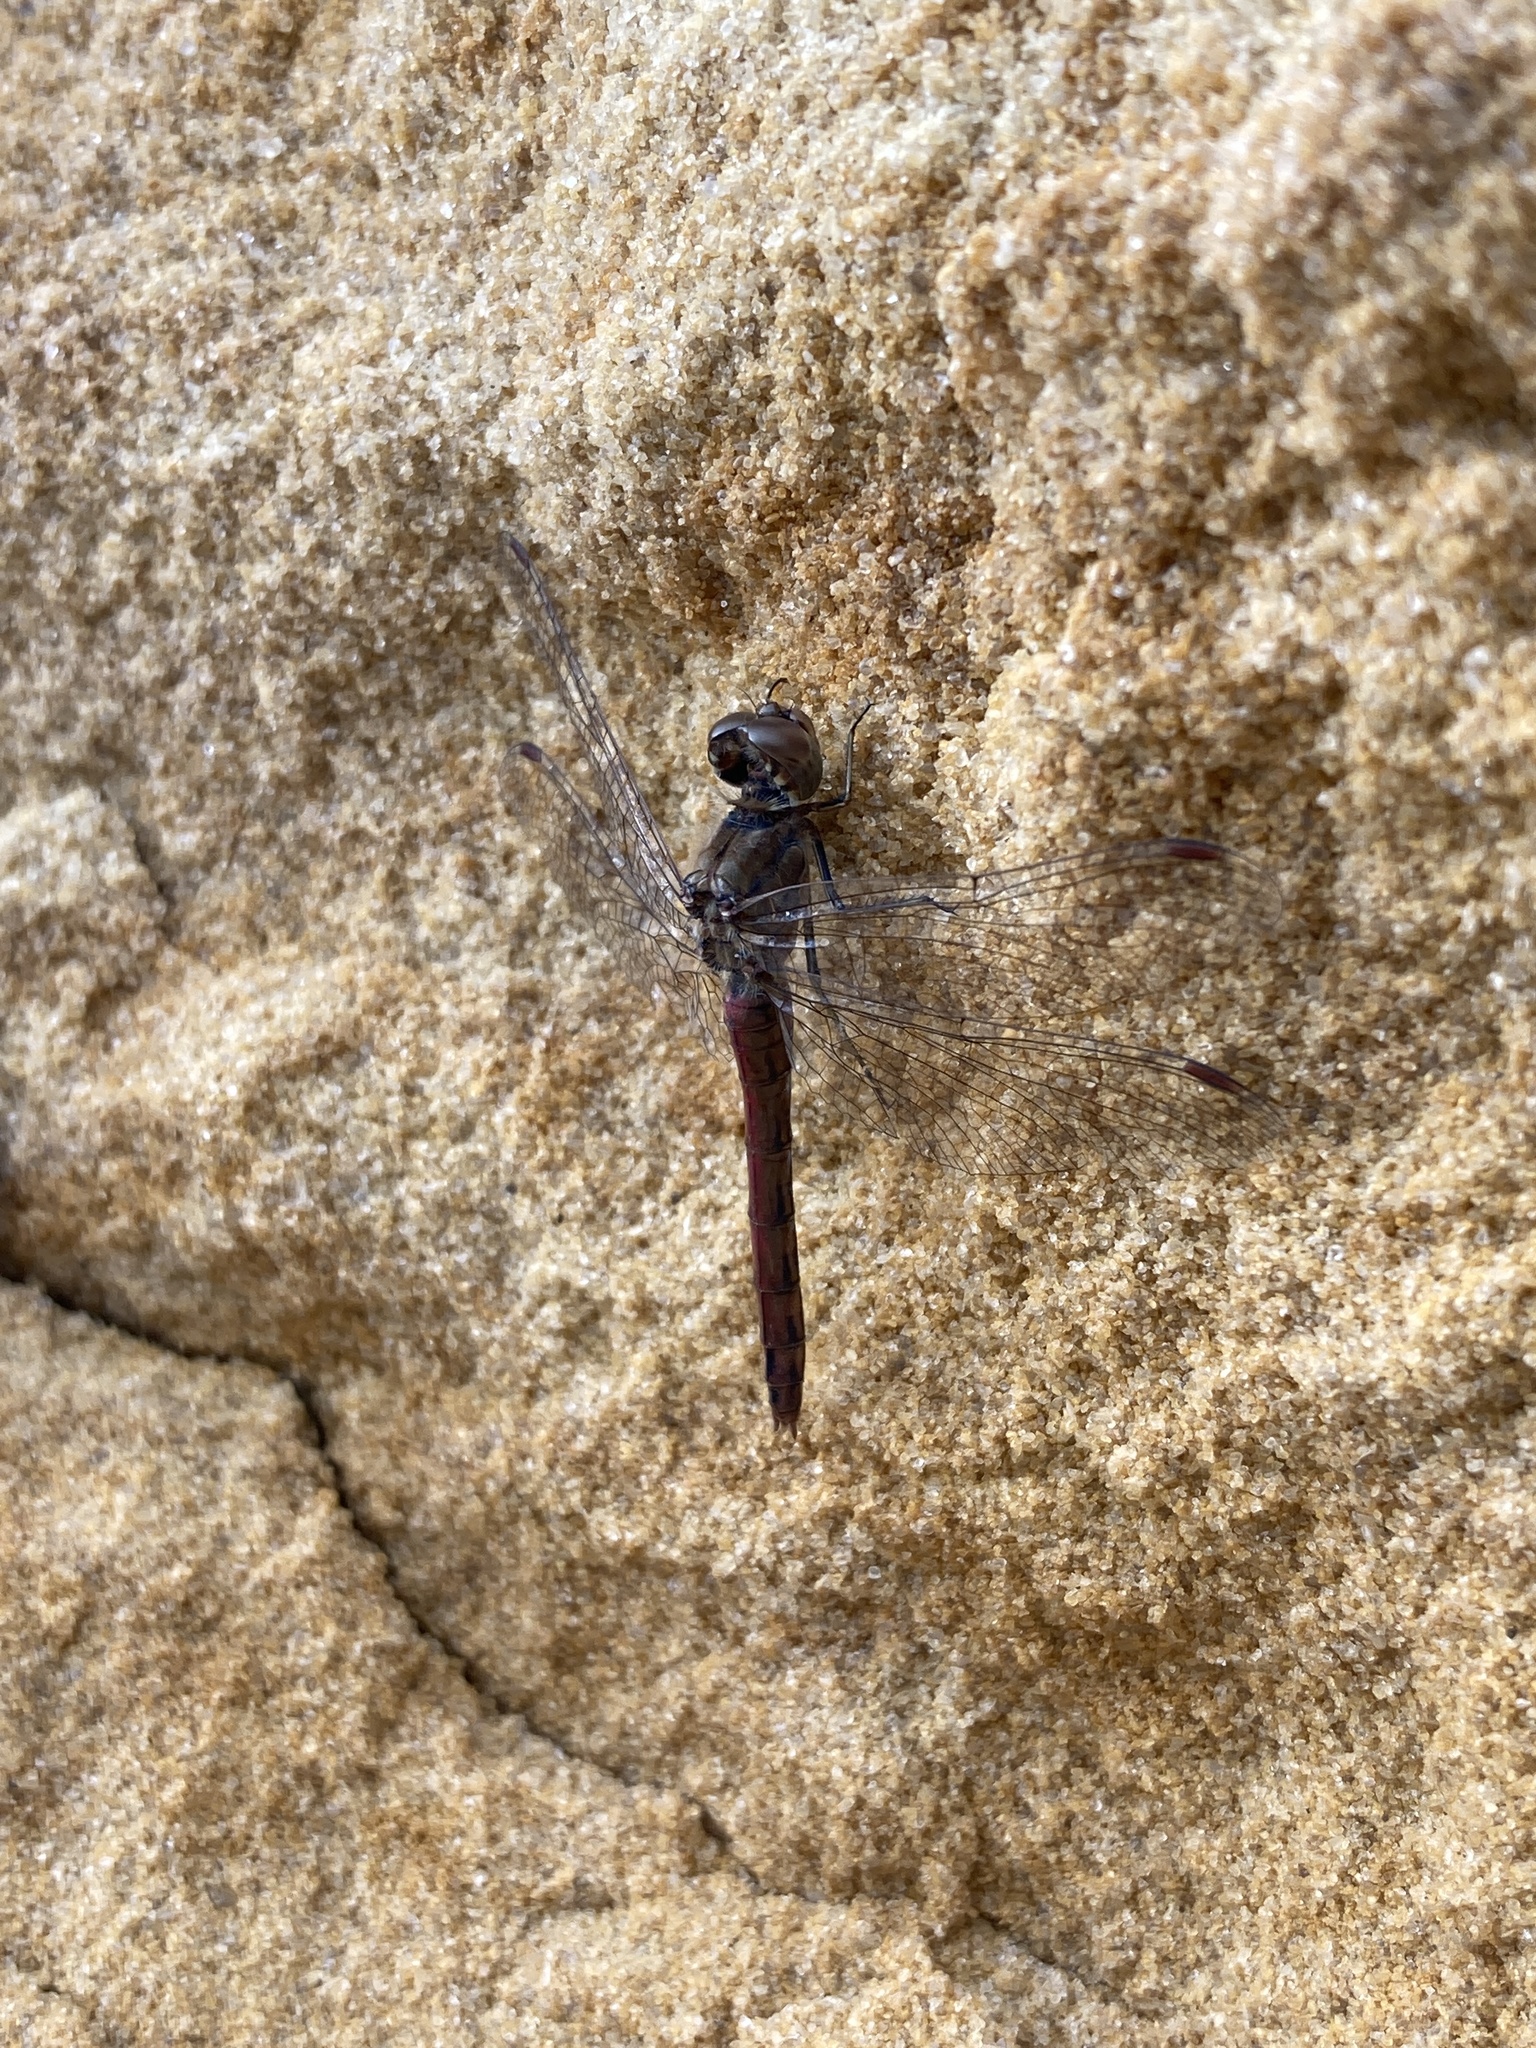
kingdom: Animalia
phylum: Arthropoda
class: Insecta
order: Odonata
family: Libellulidae
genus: Sympetrum
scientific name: Sympetrum vulgatum
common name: Vagrant darter
